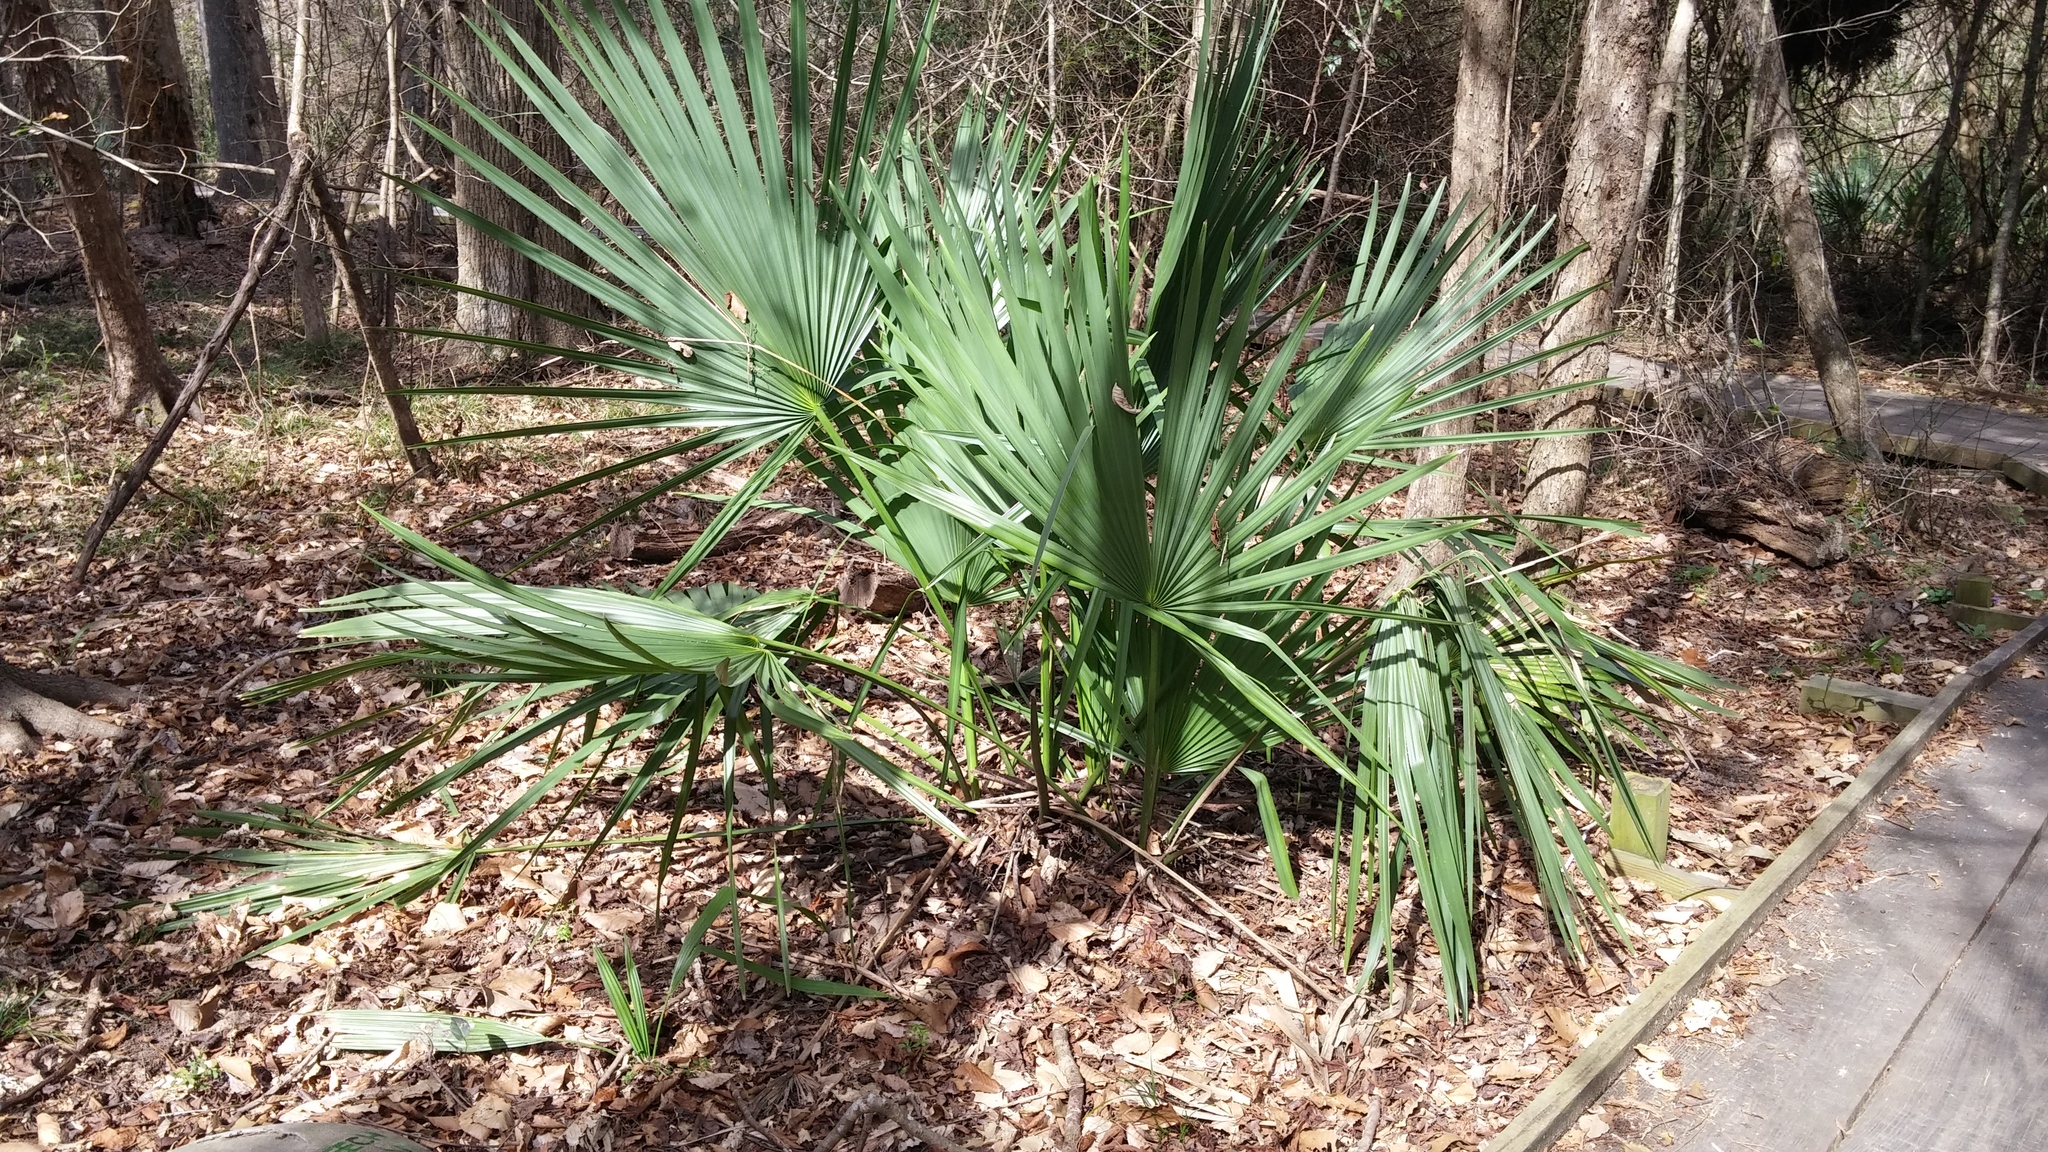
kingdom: Plantae
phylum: Tracheophyta
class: Liliopsida
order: Arecales
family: Arecaceae
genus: Sabal
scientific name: Sabal minor
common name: Dwarf palmetto
